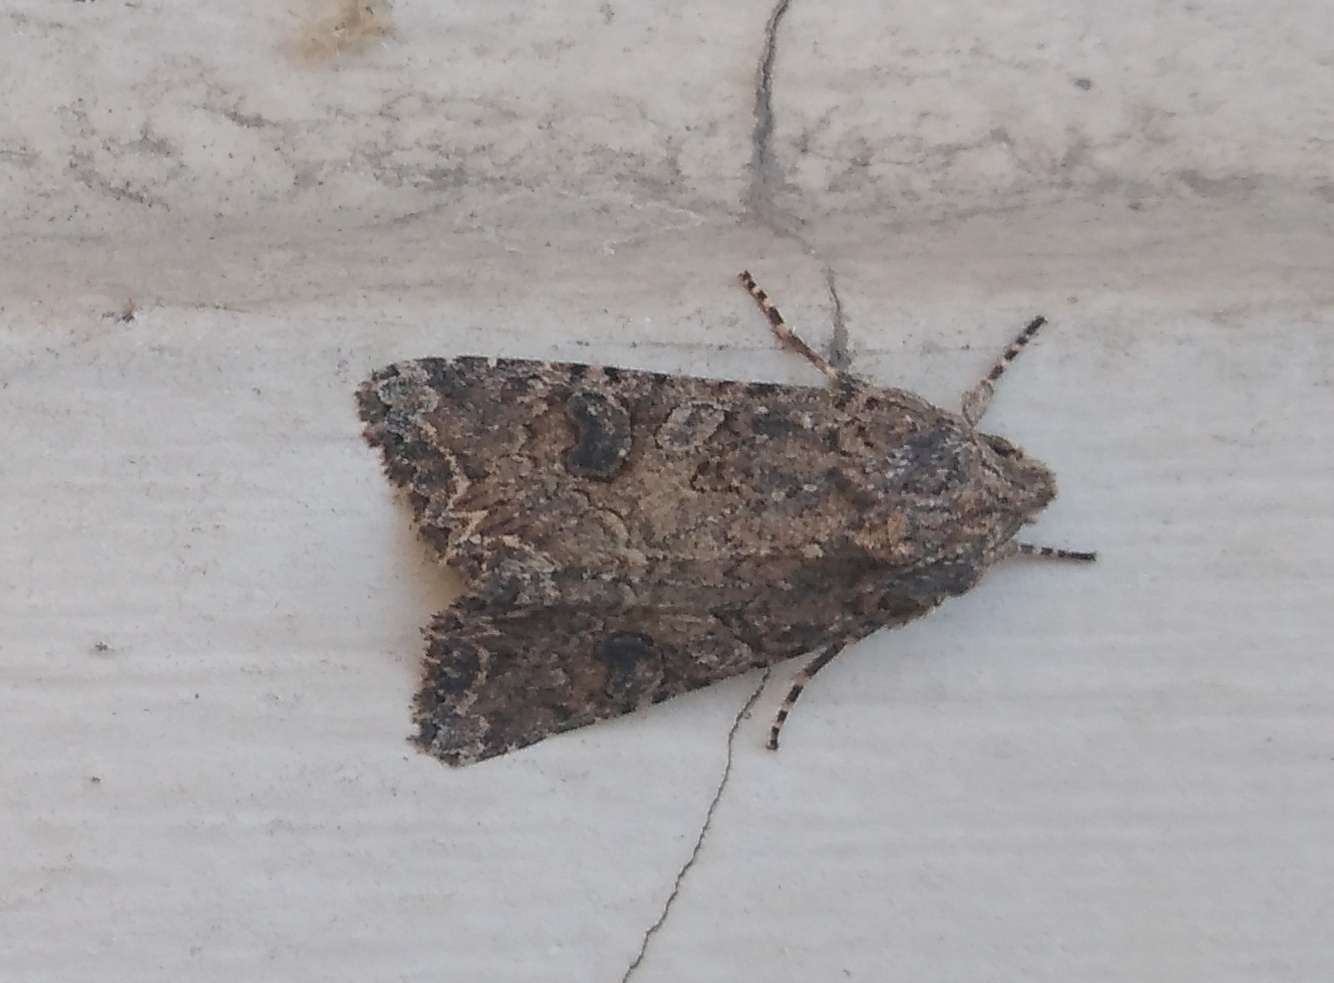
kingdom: Animalia
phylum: Arthropoda
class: Insecta
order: Lepidoptera
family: Noctuidae
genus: Anarta
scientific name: Anarta trifolii
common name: Clover cutworm moth
